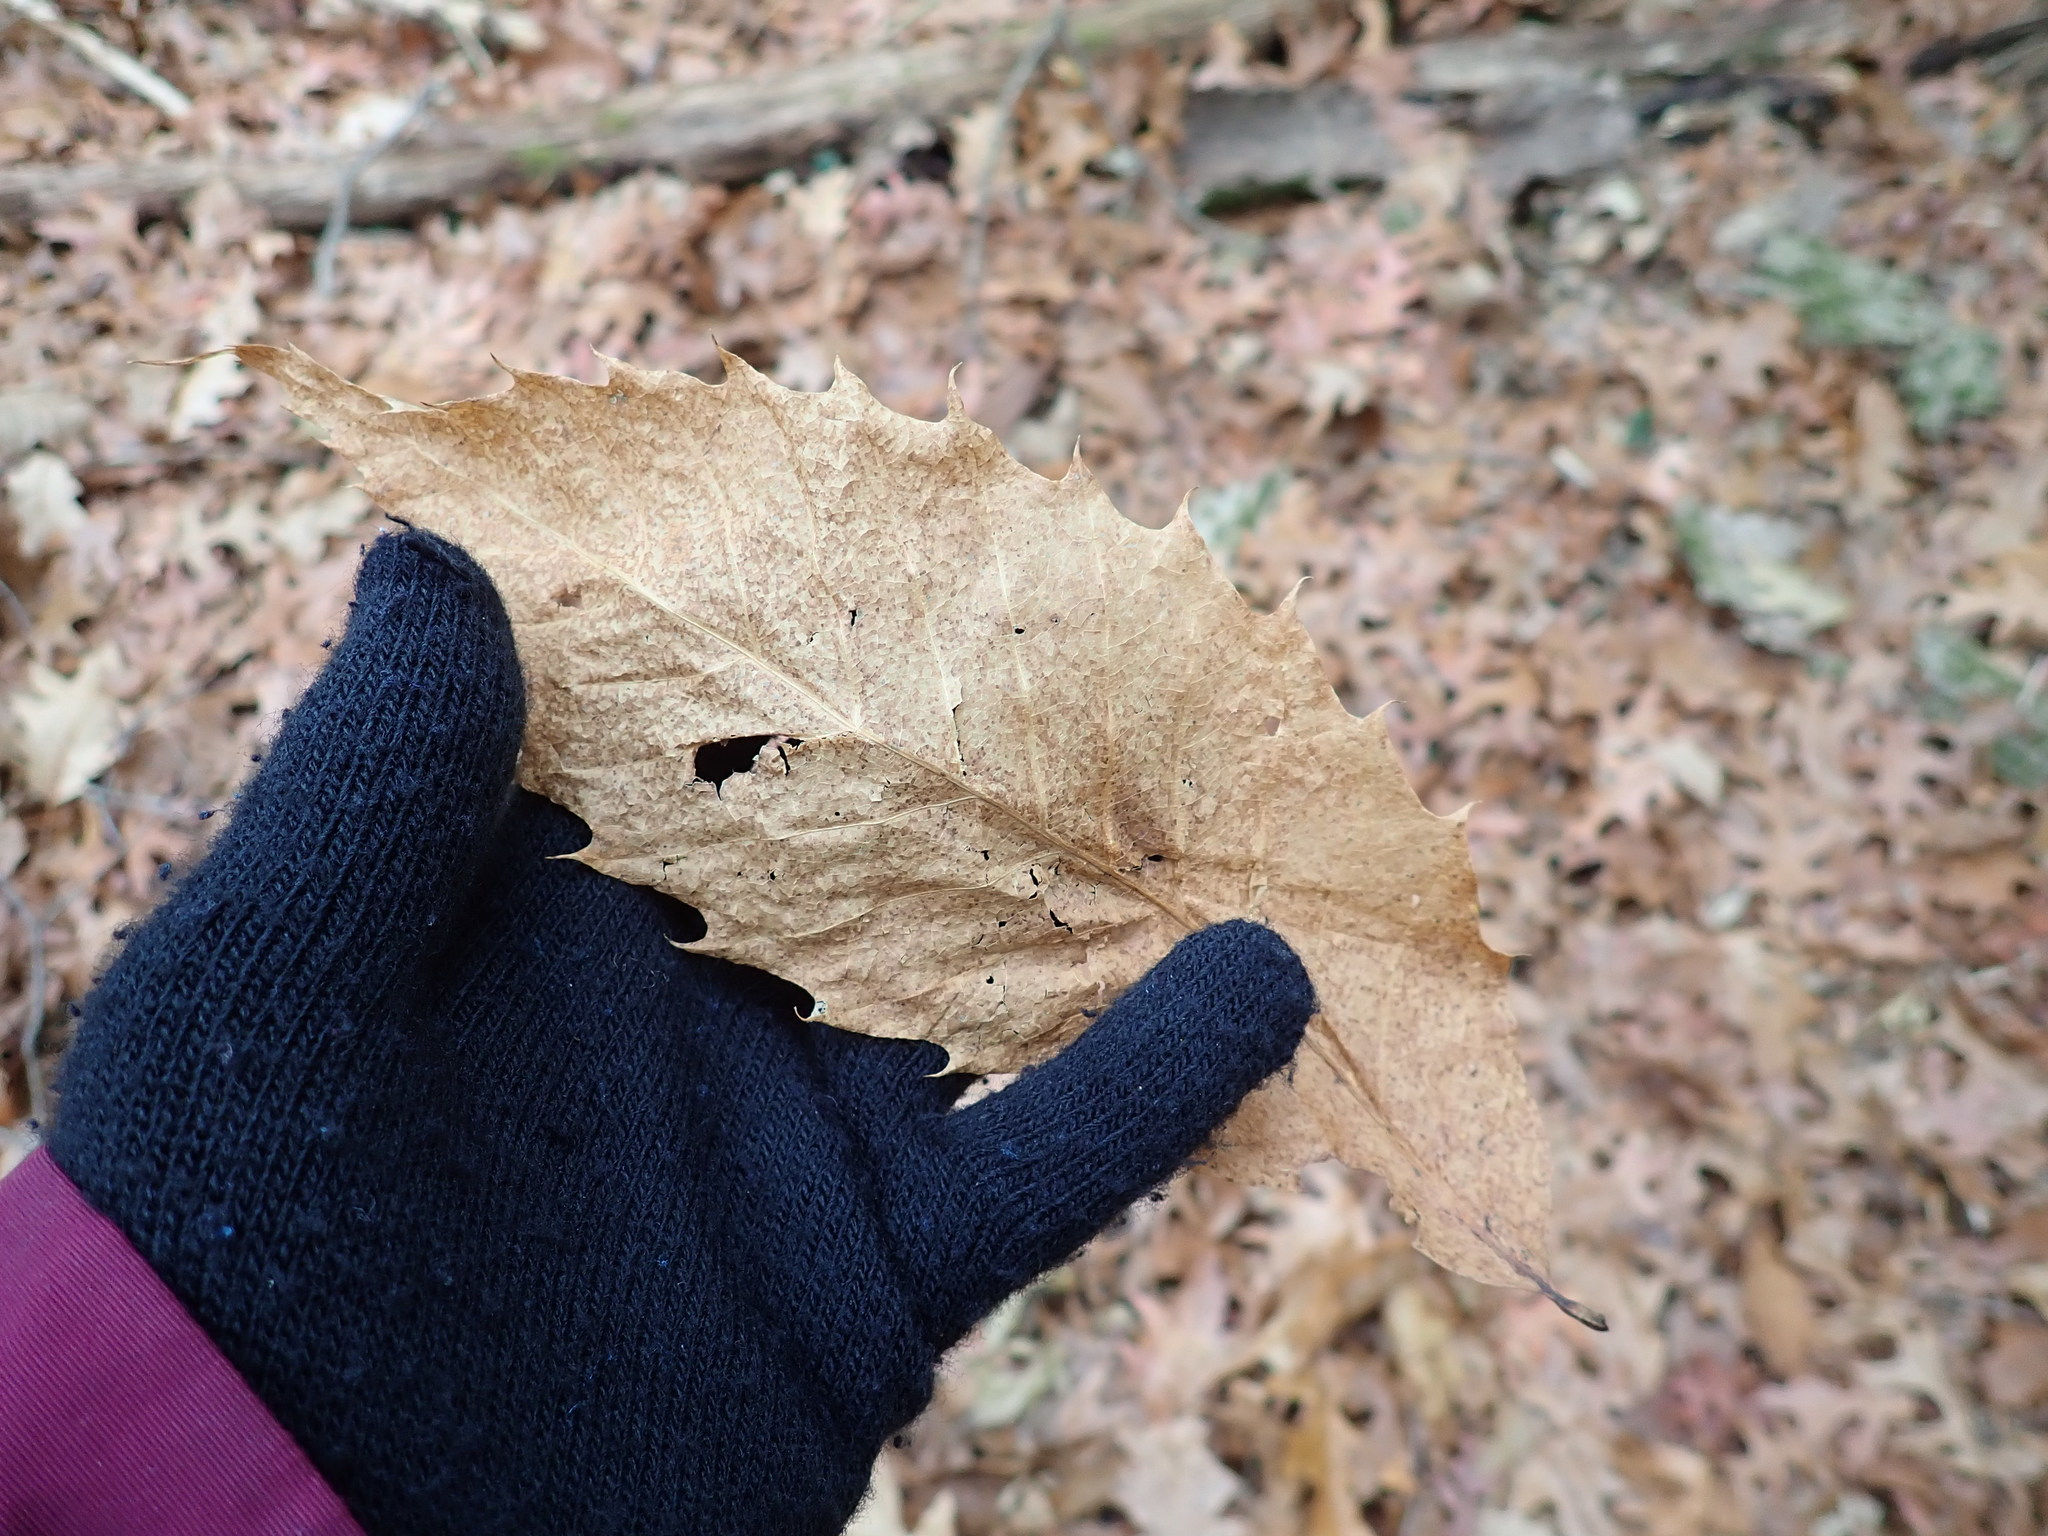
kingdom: Plantae
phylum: Tracheophyta
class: Magnoliopsida
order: Fagales
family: Fagaceae
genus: Castanea
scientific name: Castanea dentata
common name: American chestnut
